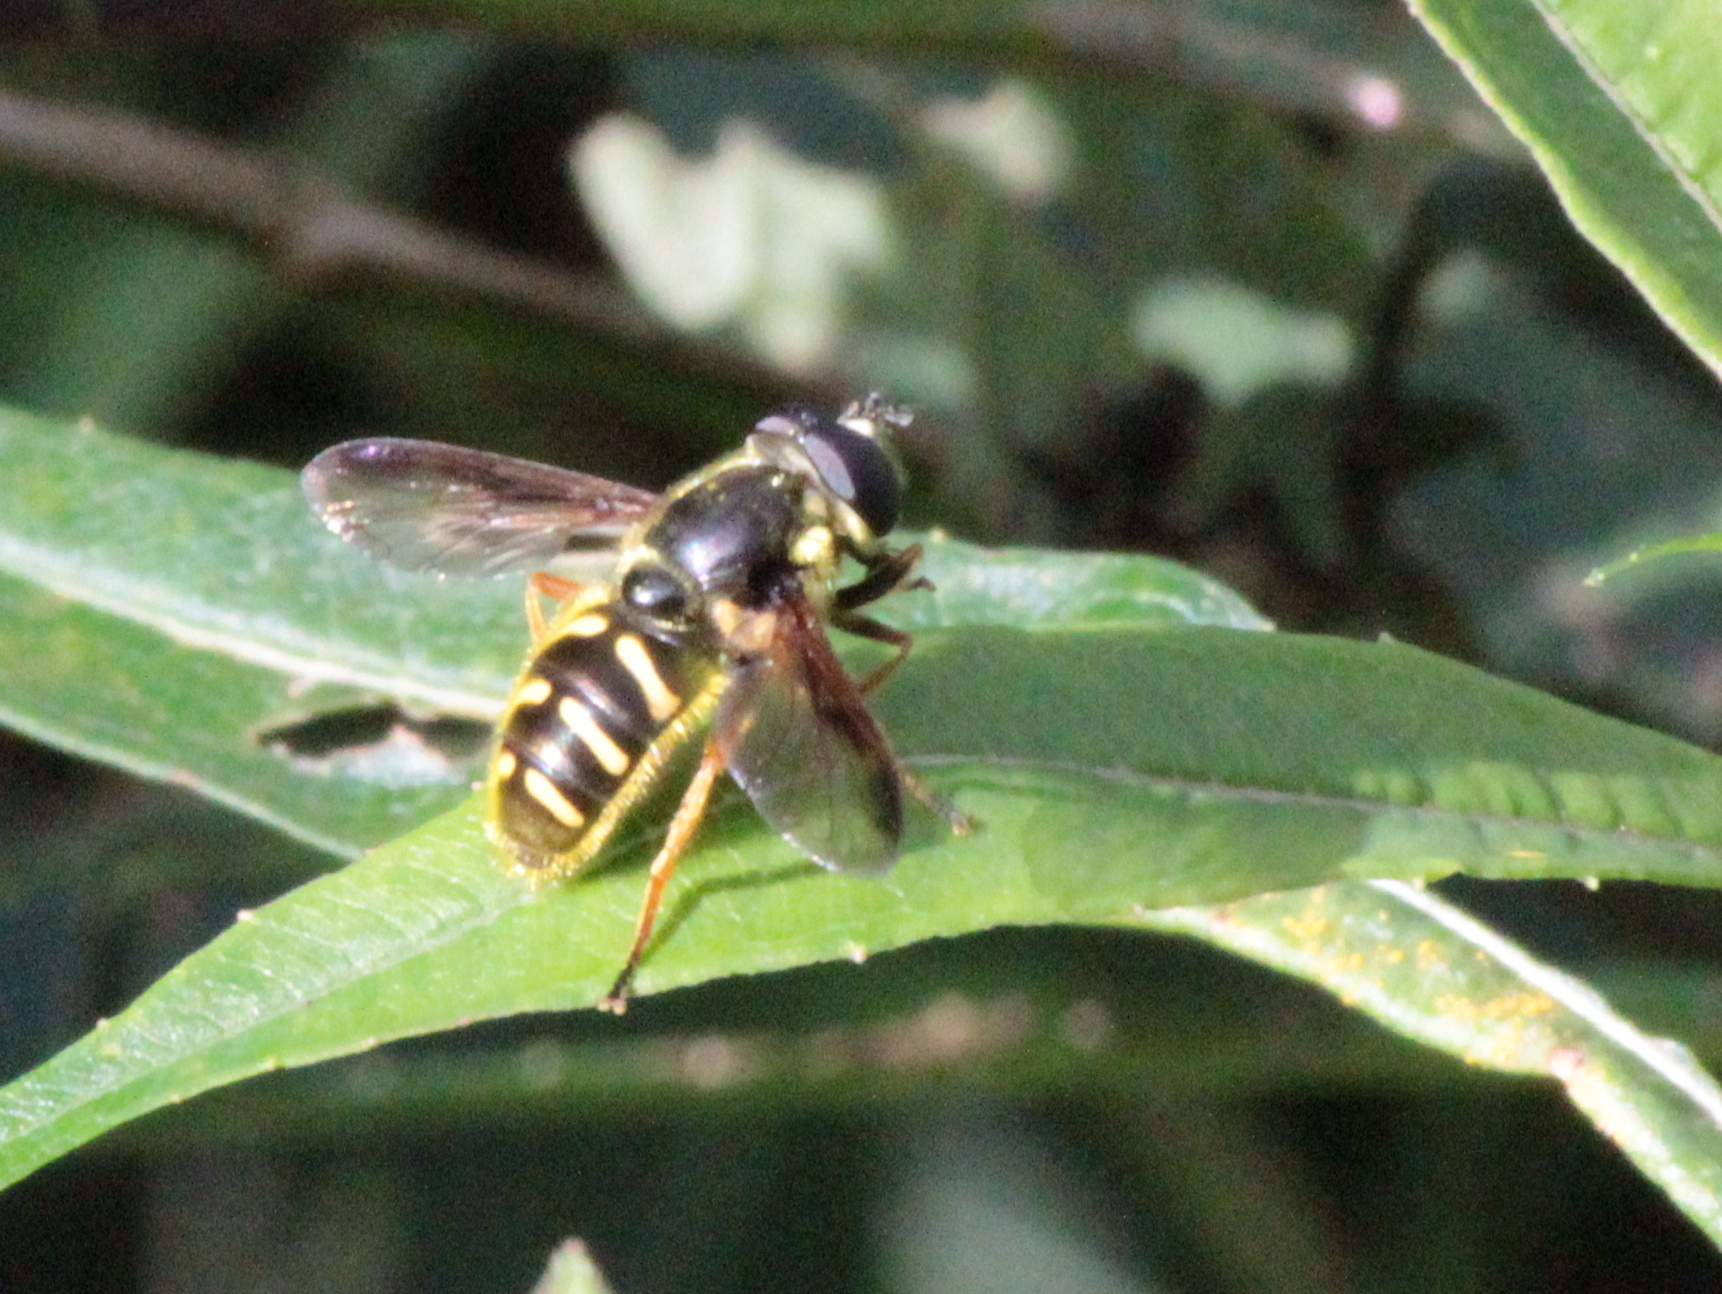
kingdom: Animalia
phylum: Arthropoda
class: Insecta
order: Diptera
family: Syrphidae
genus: Sericomyia
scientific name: Sericomyia chrysotoxoides
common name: Oblique-banded pond fly
